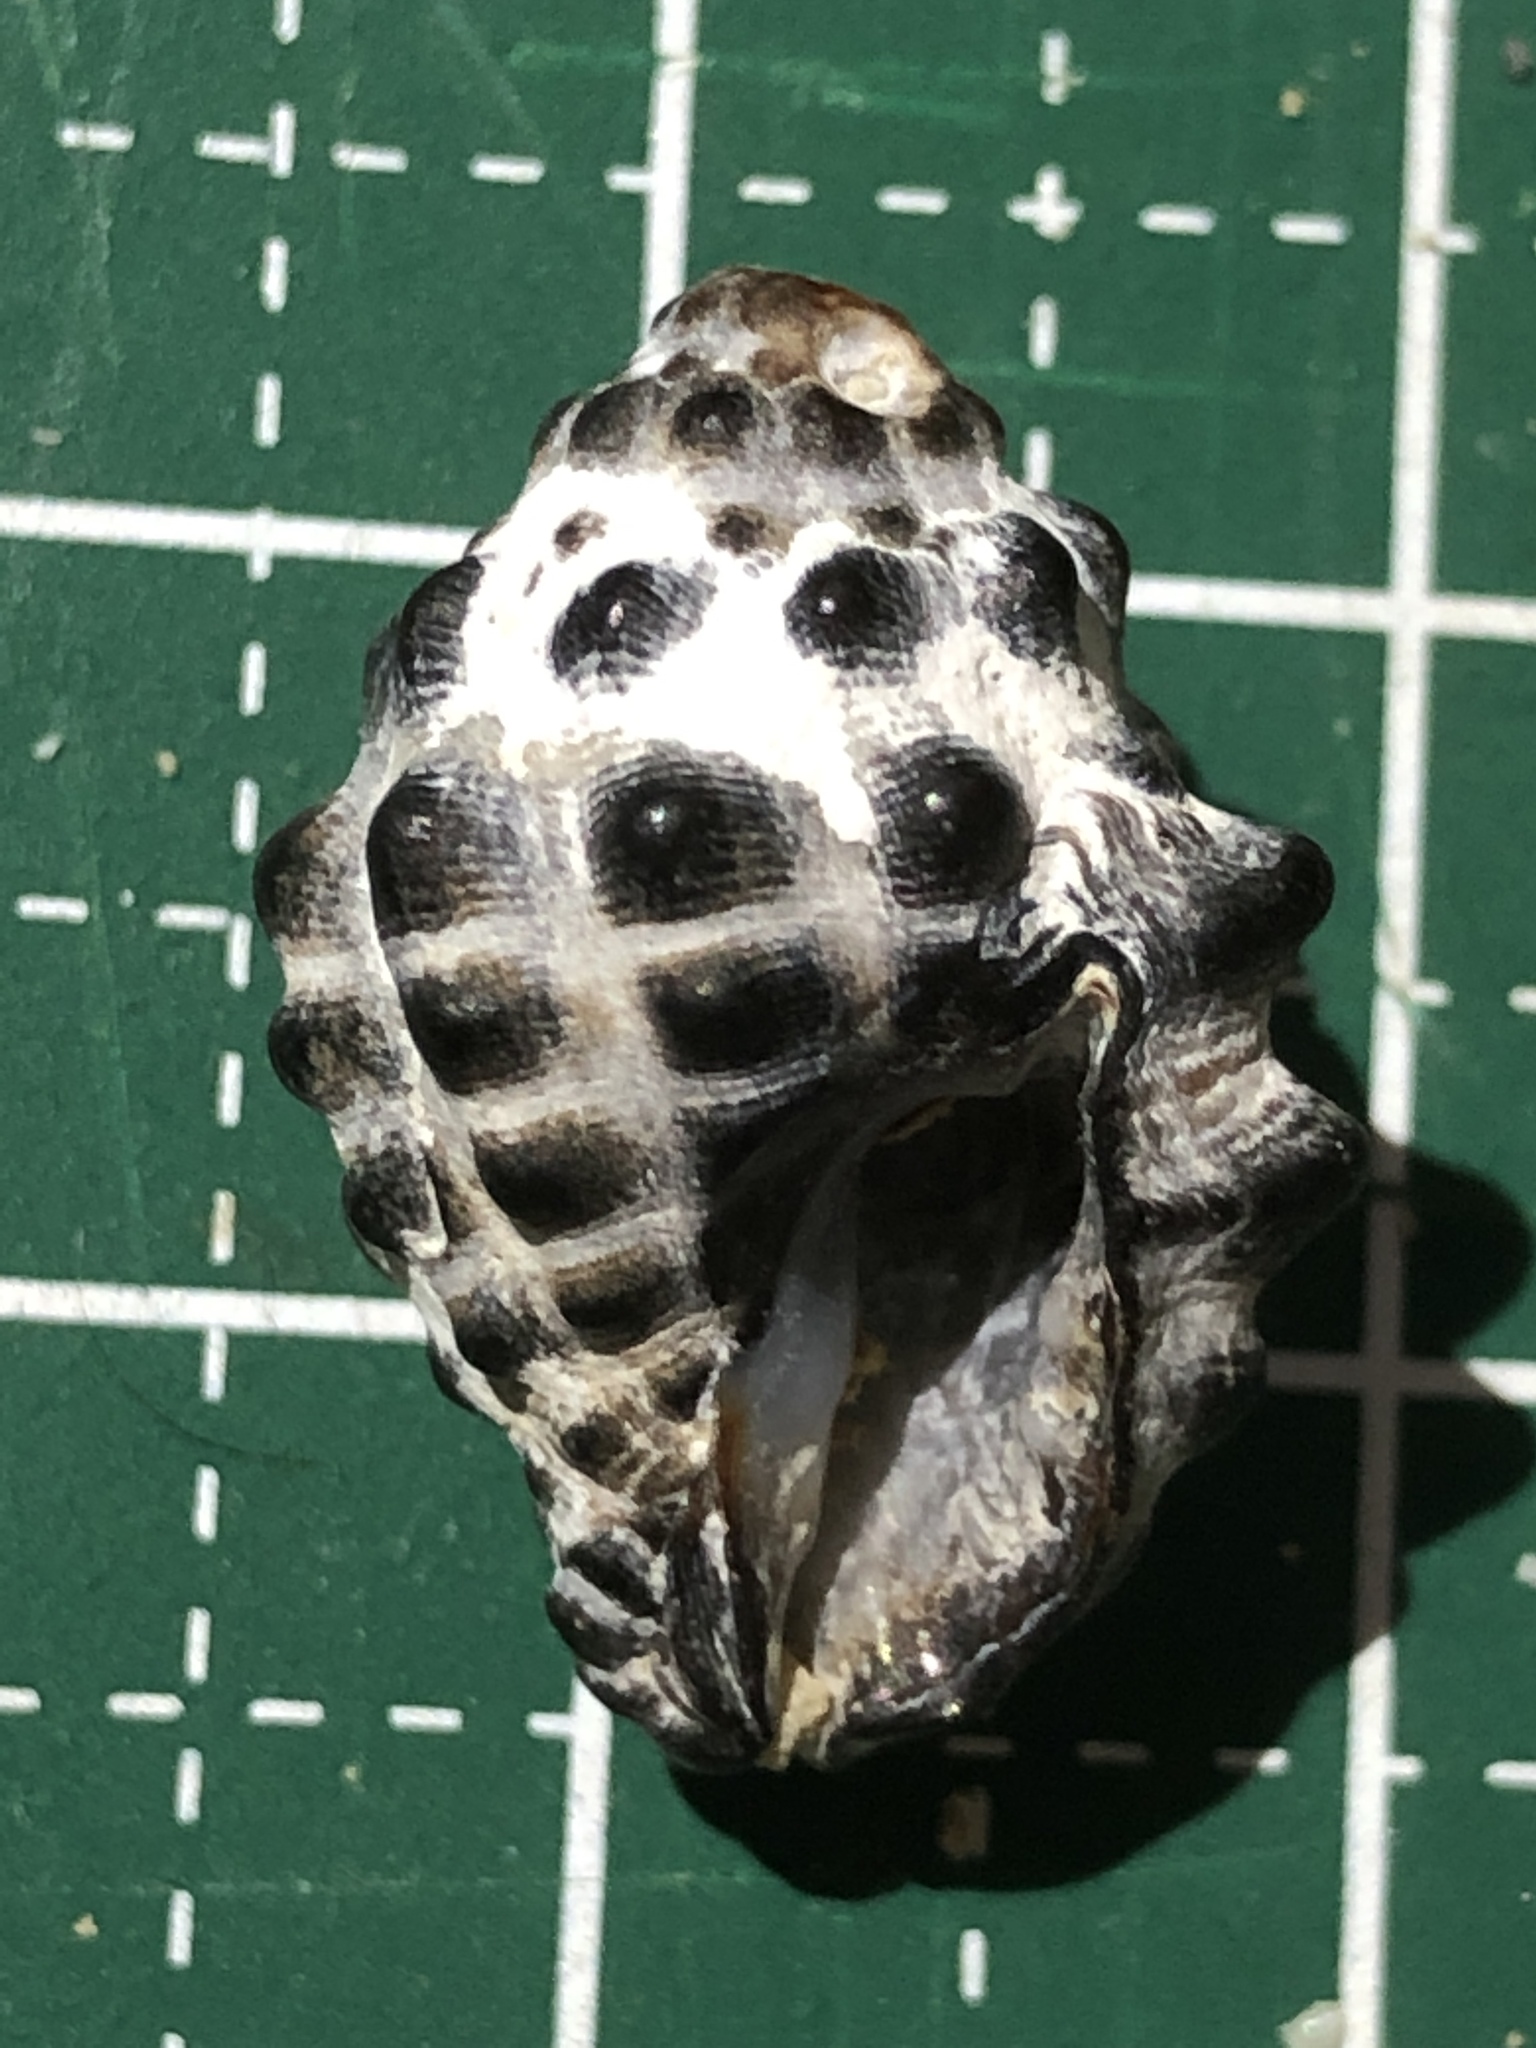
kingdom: Animalia
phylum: Mollusca
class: Gastropoda
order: Neogastropoda
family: Muricidae
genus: Tenguella
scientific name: Tenguella granulata
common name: Granular drupe
